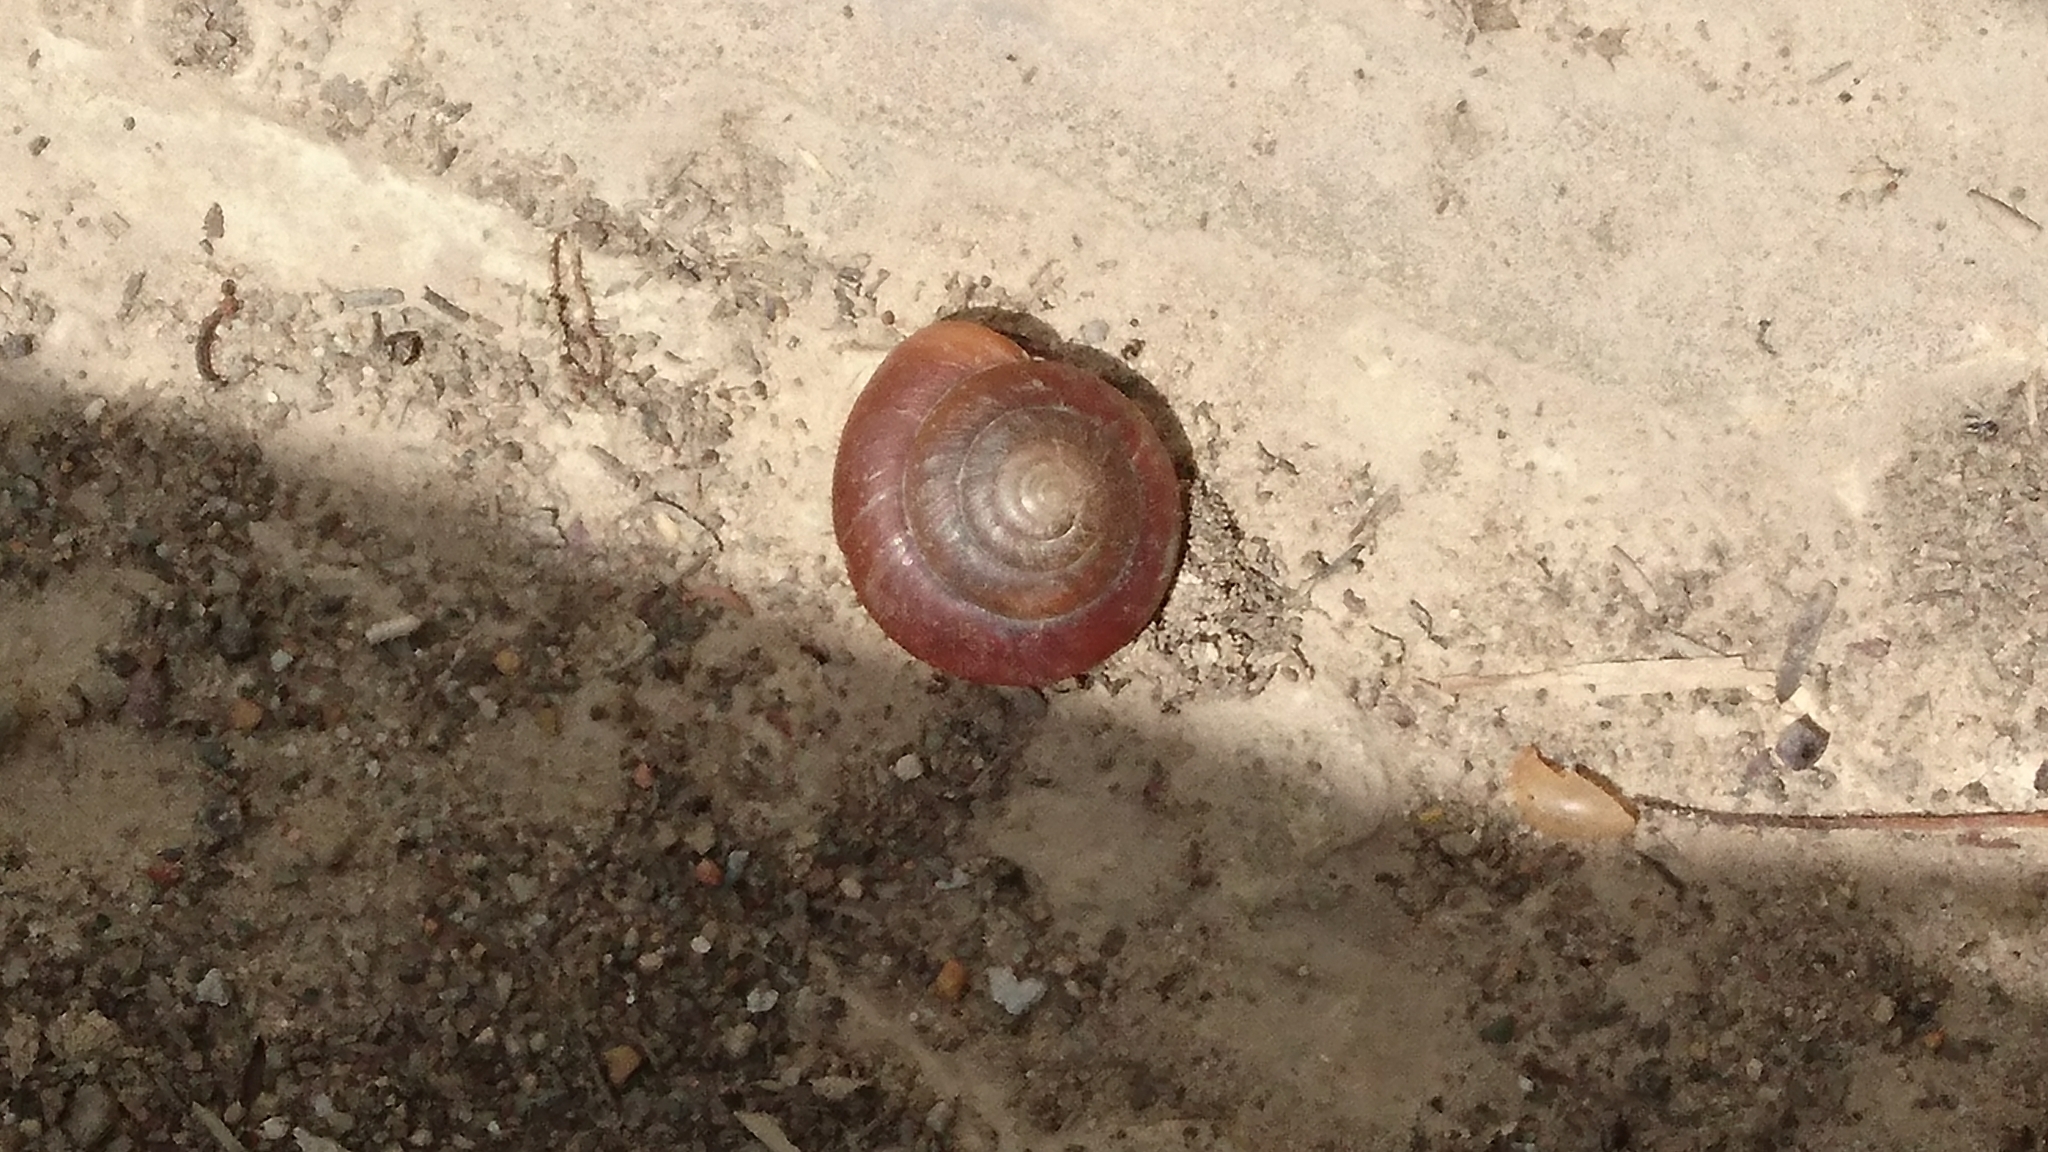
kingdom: Animalia
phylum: Mollusca
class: Gastropoda
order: Stylommatophora
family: Dyakiidae
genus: Quantula
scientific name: Quantula striata
